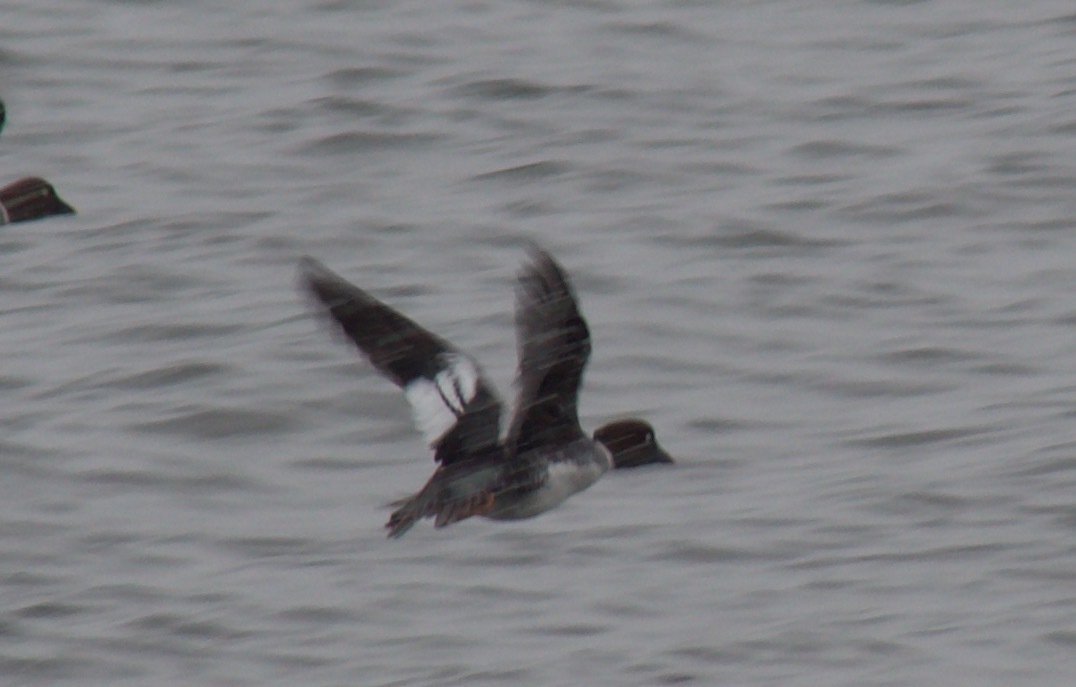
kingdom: Animalia
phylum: Chordata
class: Aves
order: Anseriformes
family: Anatidae
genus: Bucephala
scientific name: Bucephala clangula
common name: Common goldeneye
